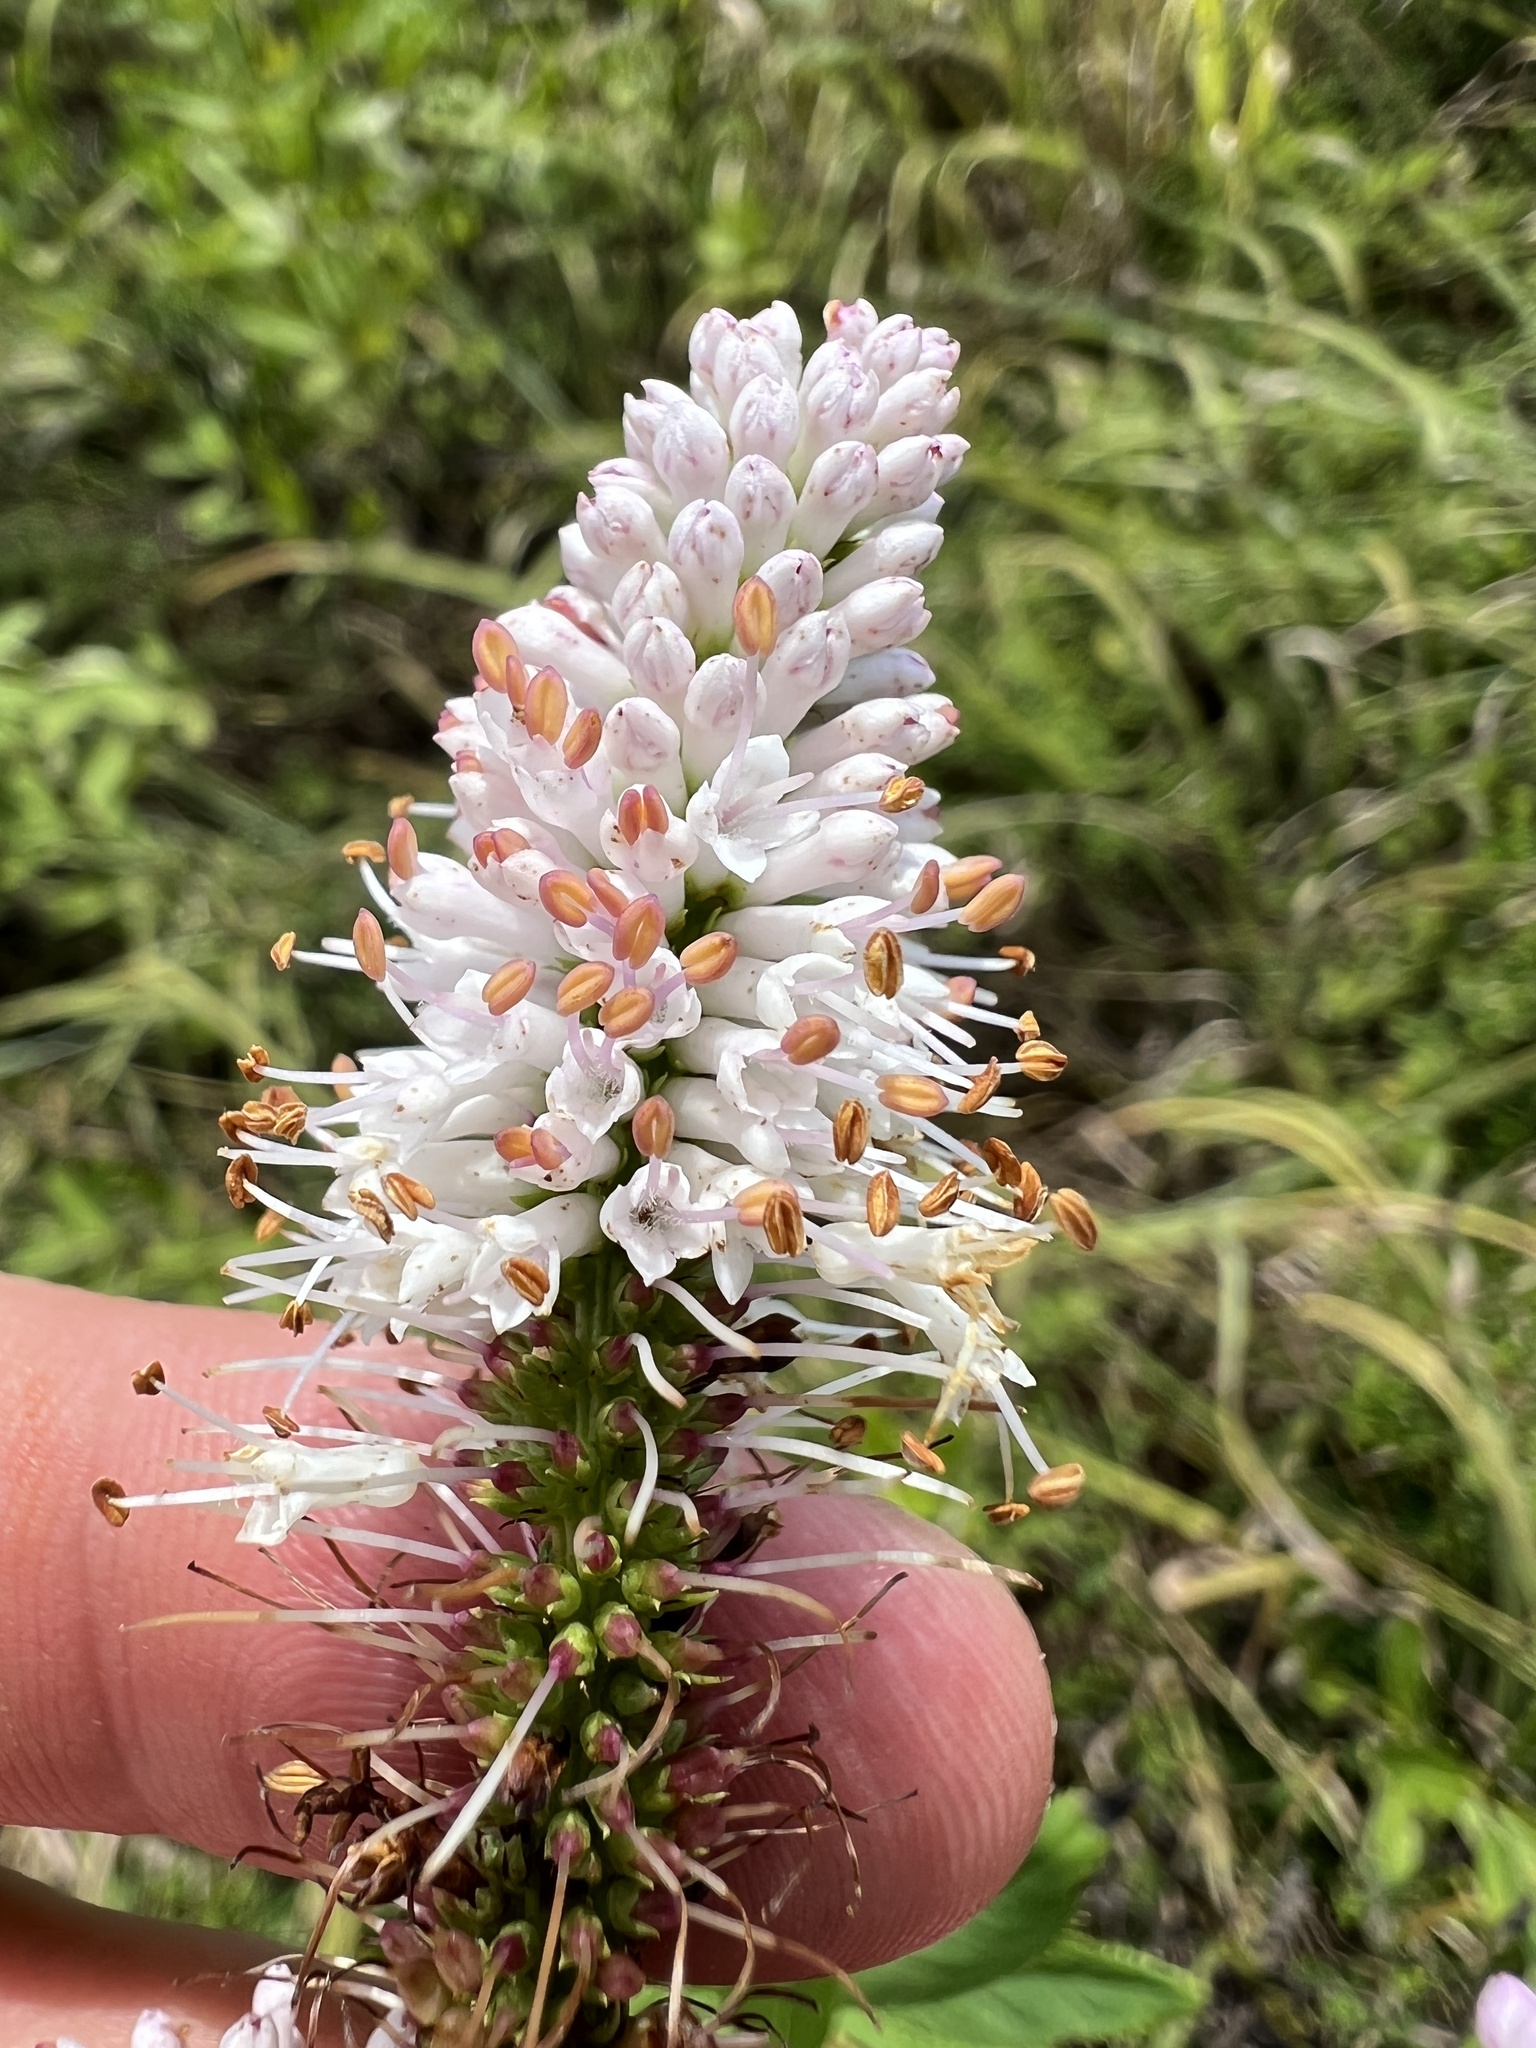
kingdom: Plantae
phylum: Tracheophyta
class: Magnoliopsida
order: Lamiales
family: Plantaginaceae
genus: Veronicastrum
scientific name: Veronicastrum virginicum
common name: Blackroot
